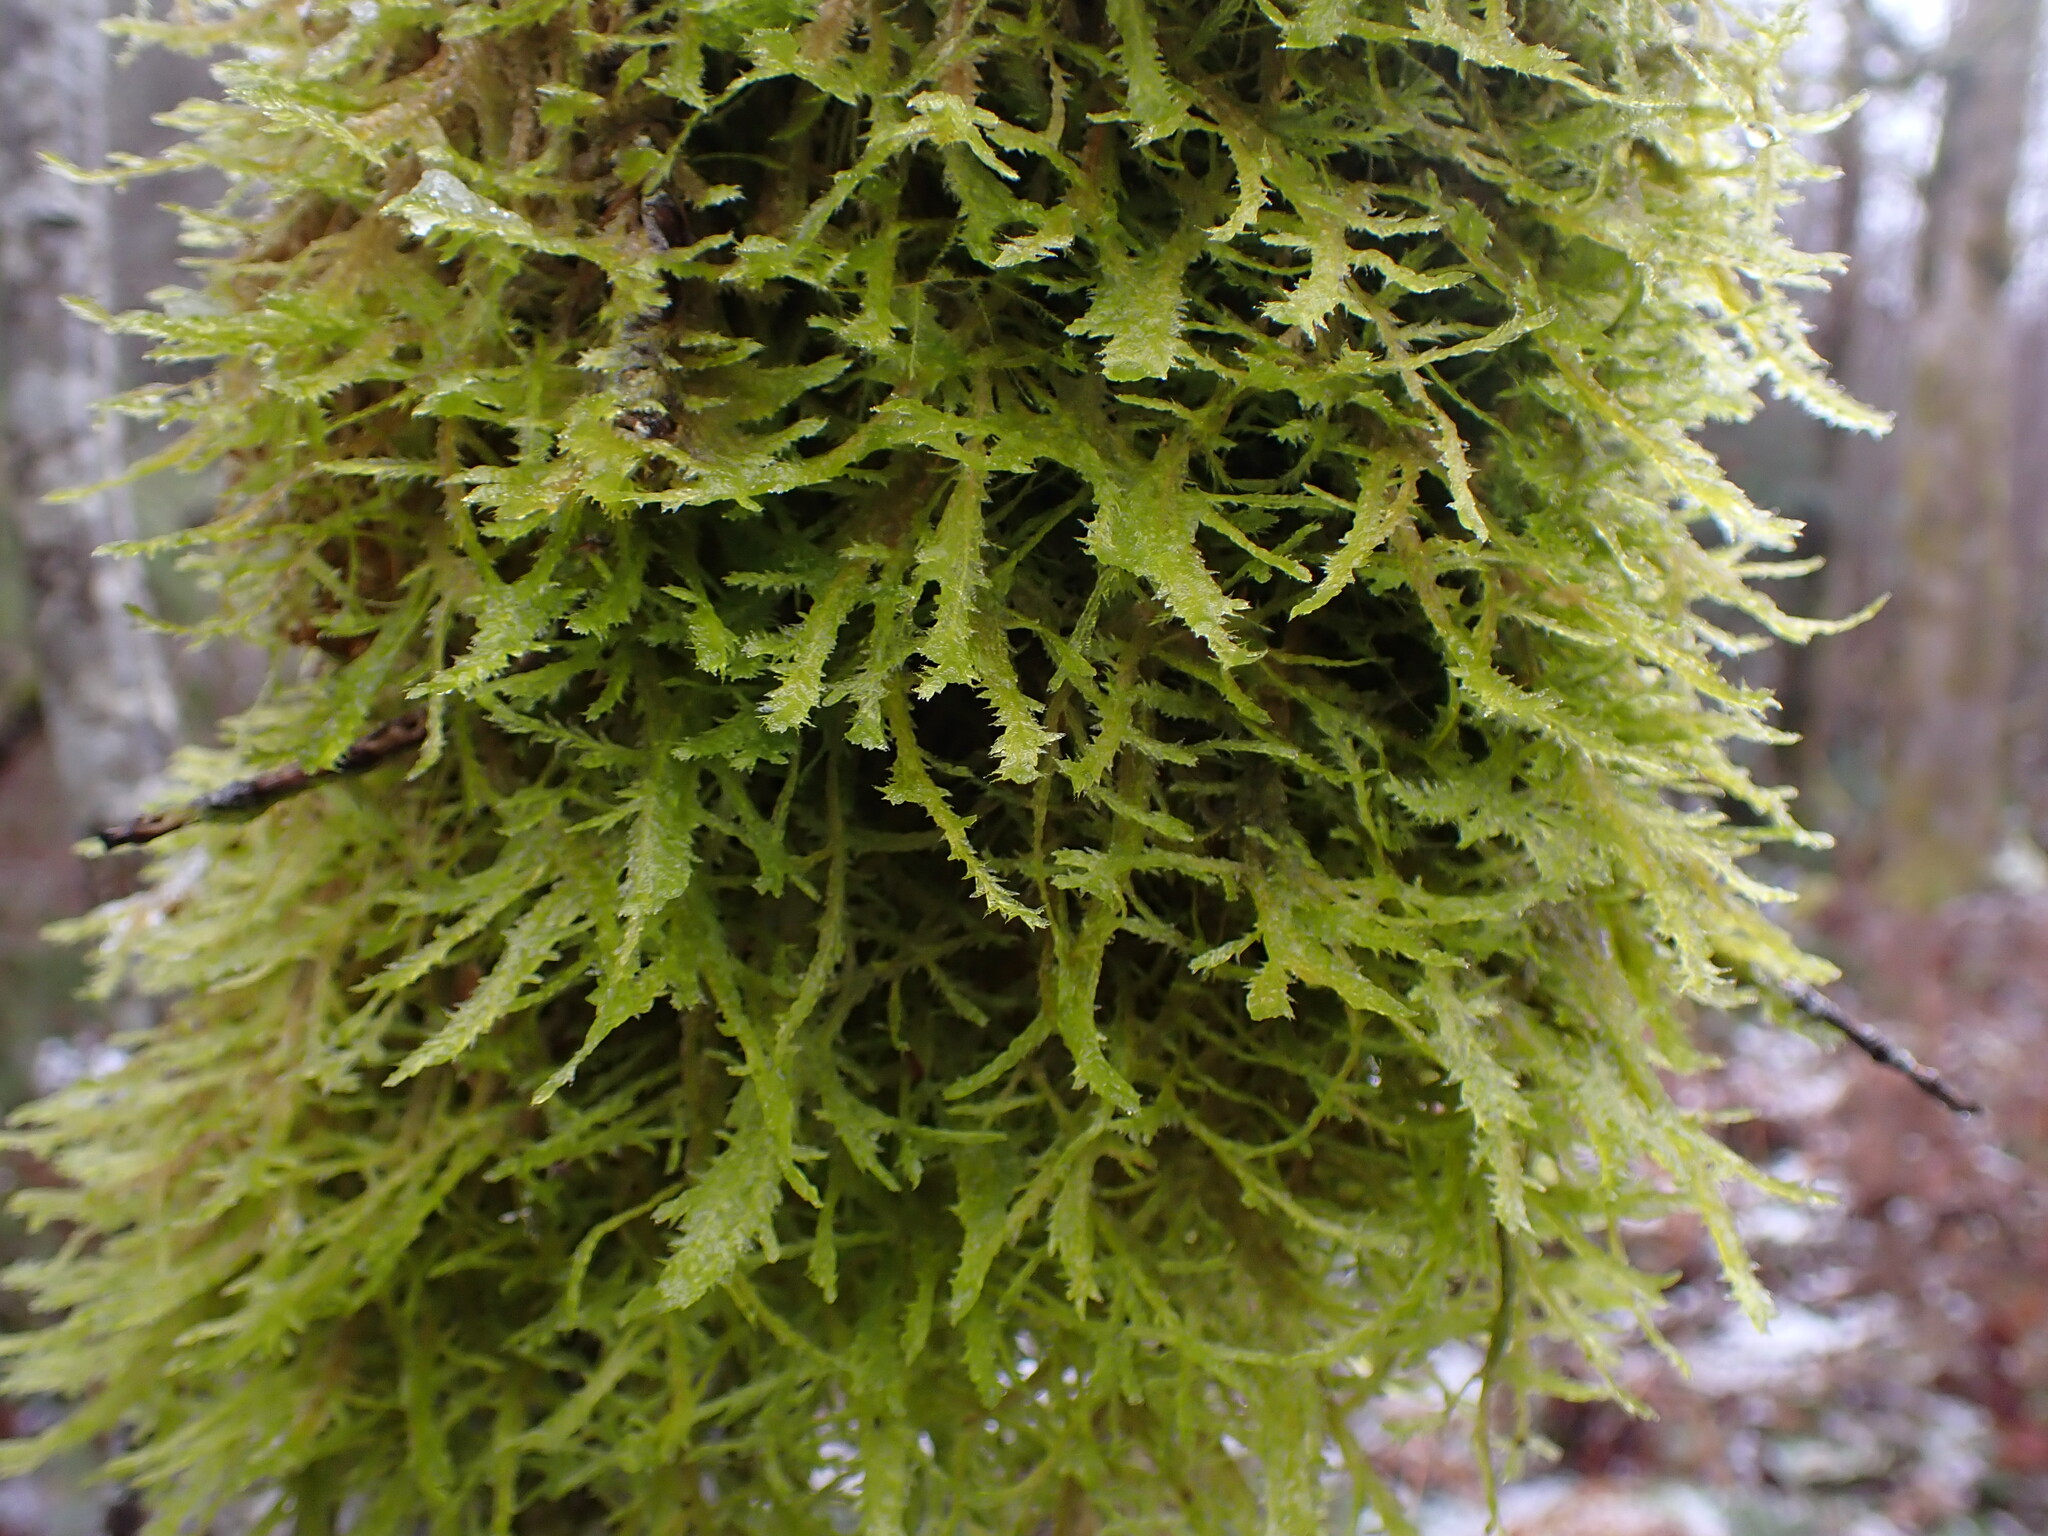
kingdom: Plantae
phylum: Bryophyta
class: Bryopsida
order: Hypnales
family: Neckeraceae
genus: Neckera
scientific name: Neckera douglasii
